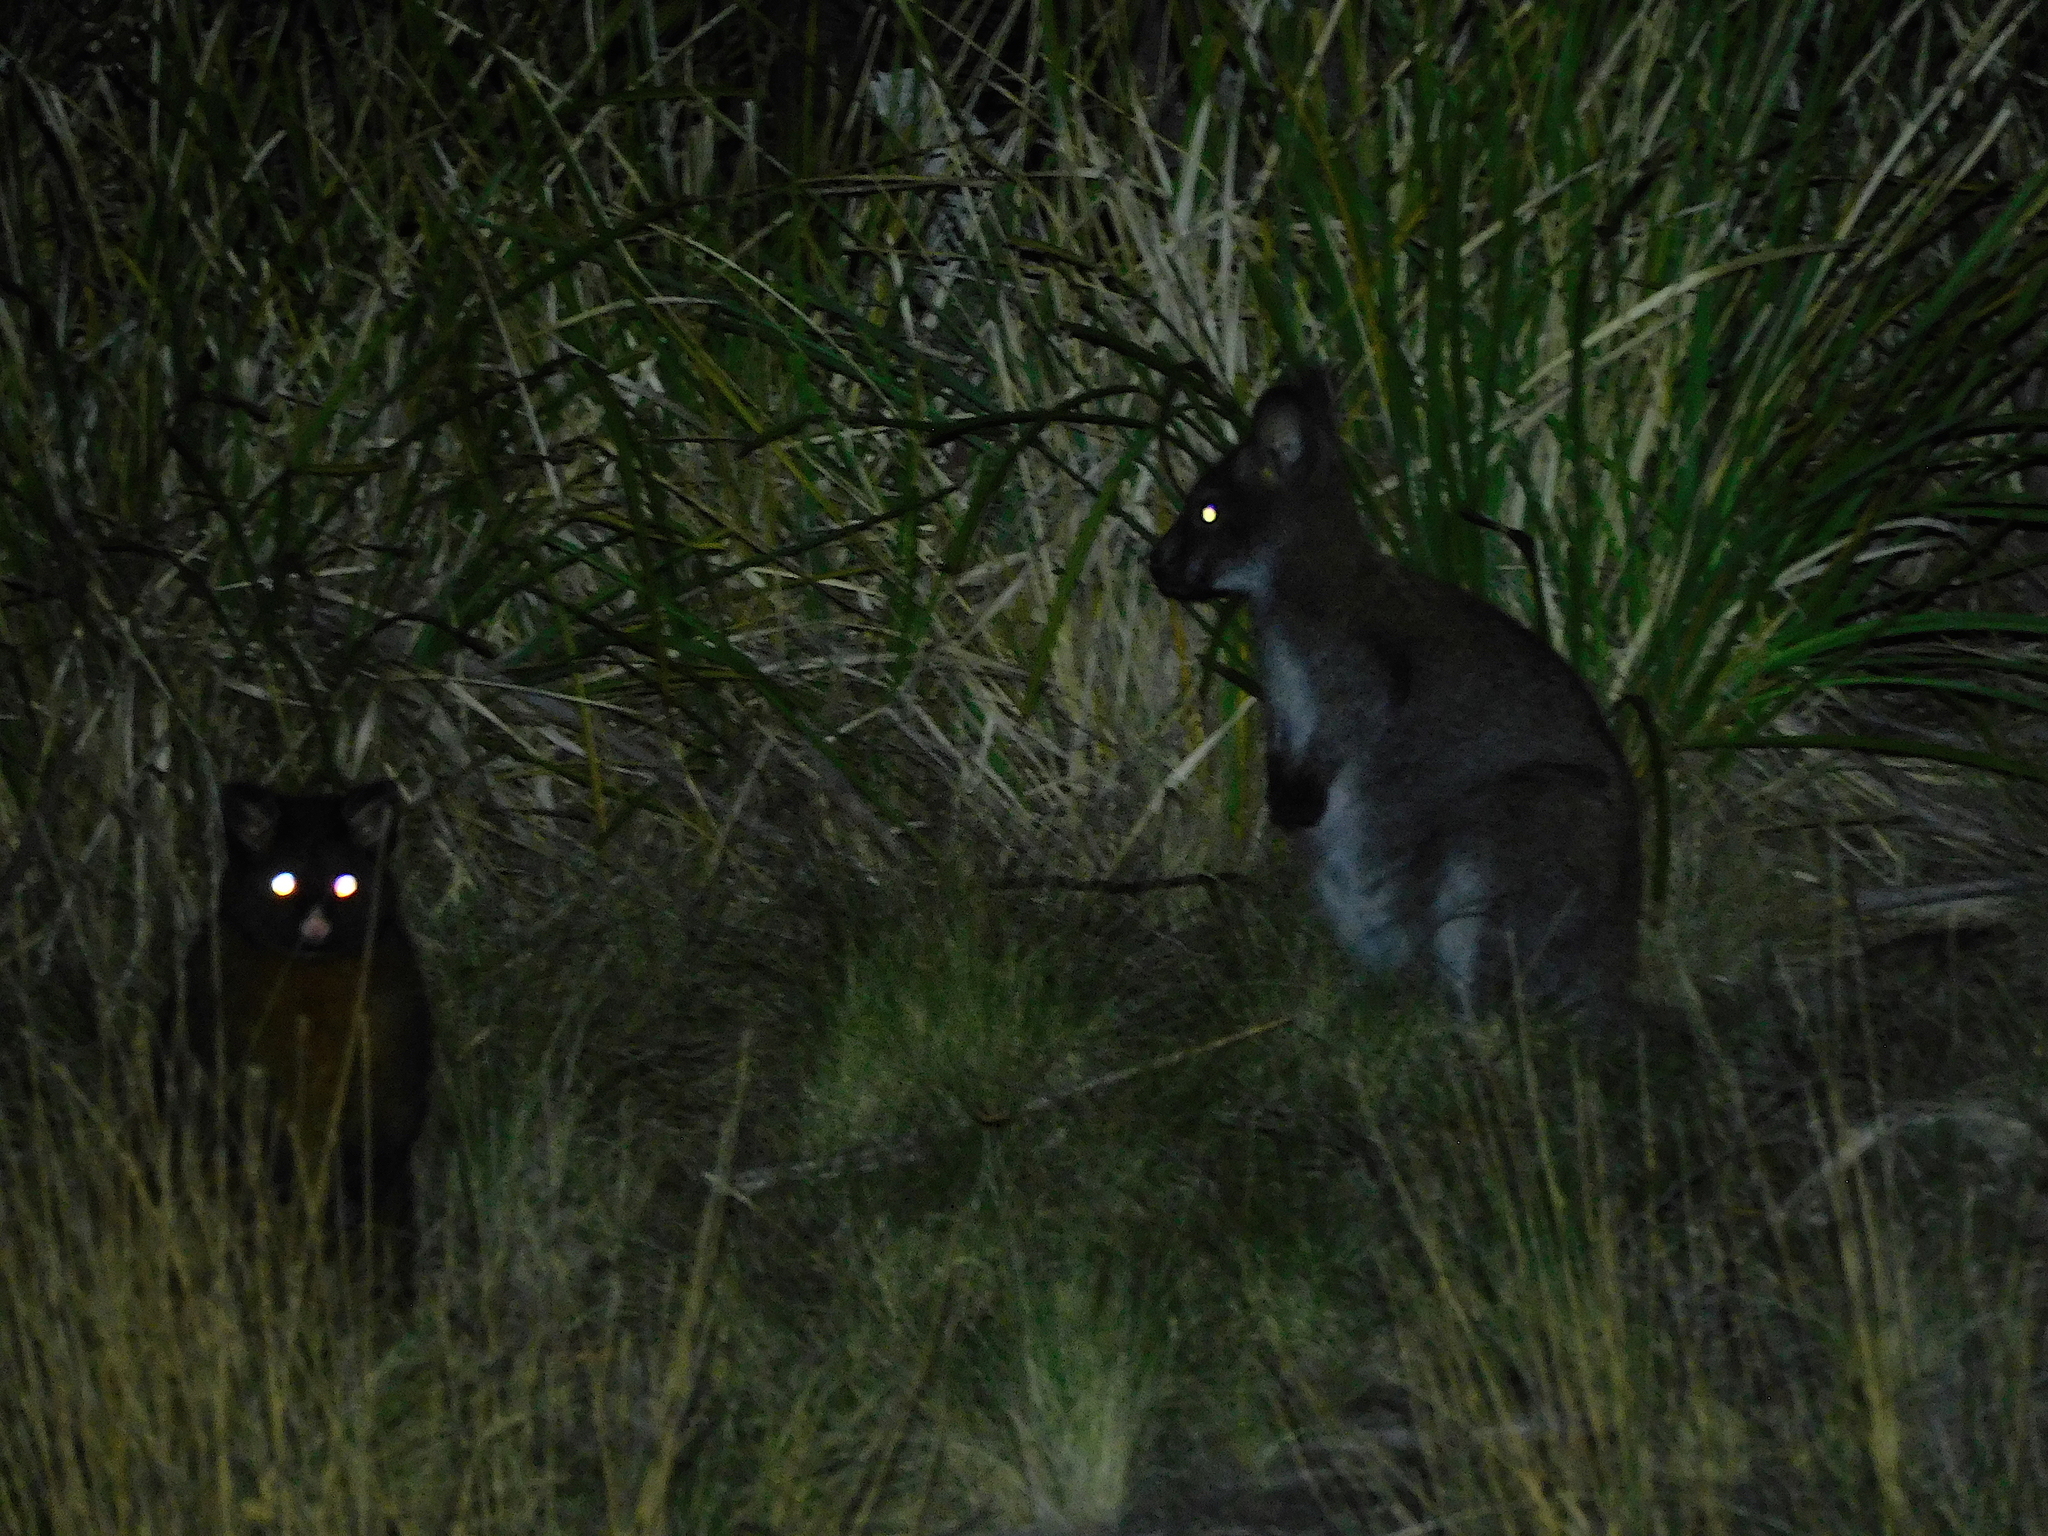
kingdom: Animalia
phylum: Chordata
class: Mammalia
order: Diprotodontia
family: Macropodidae
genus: Notamacropus
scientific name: Notamacropus rufogriseus
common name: Red-necked wallaby
